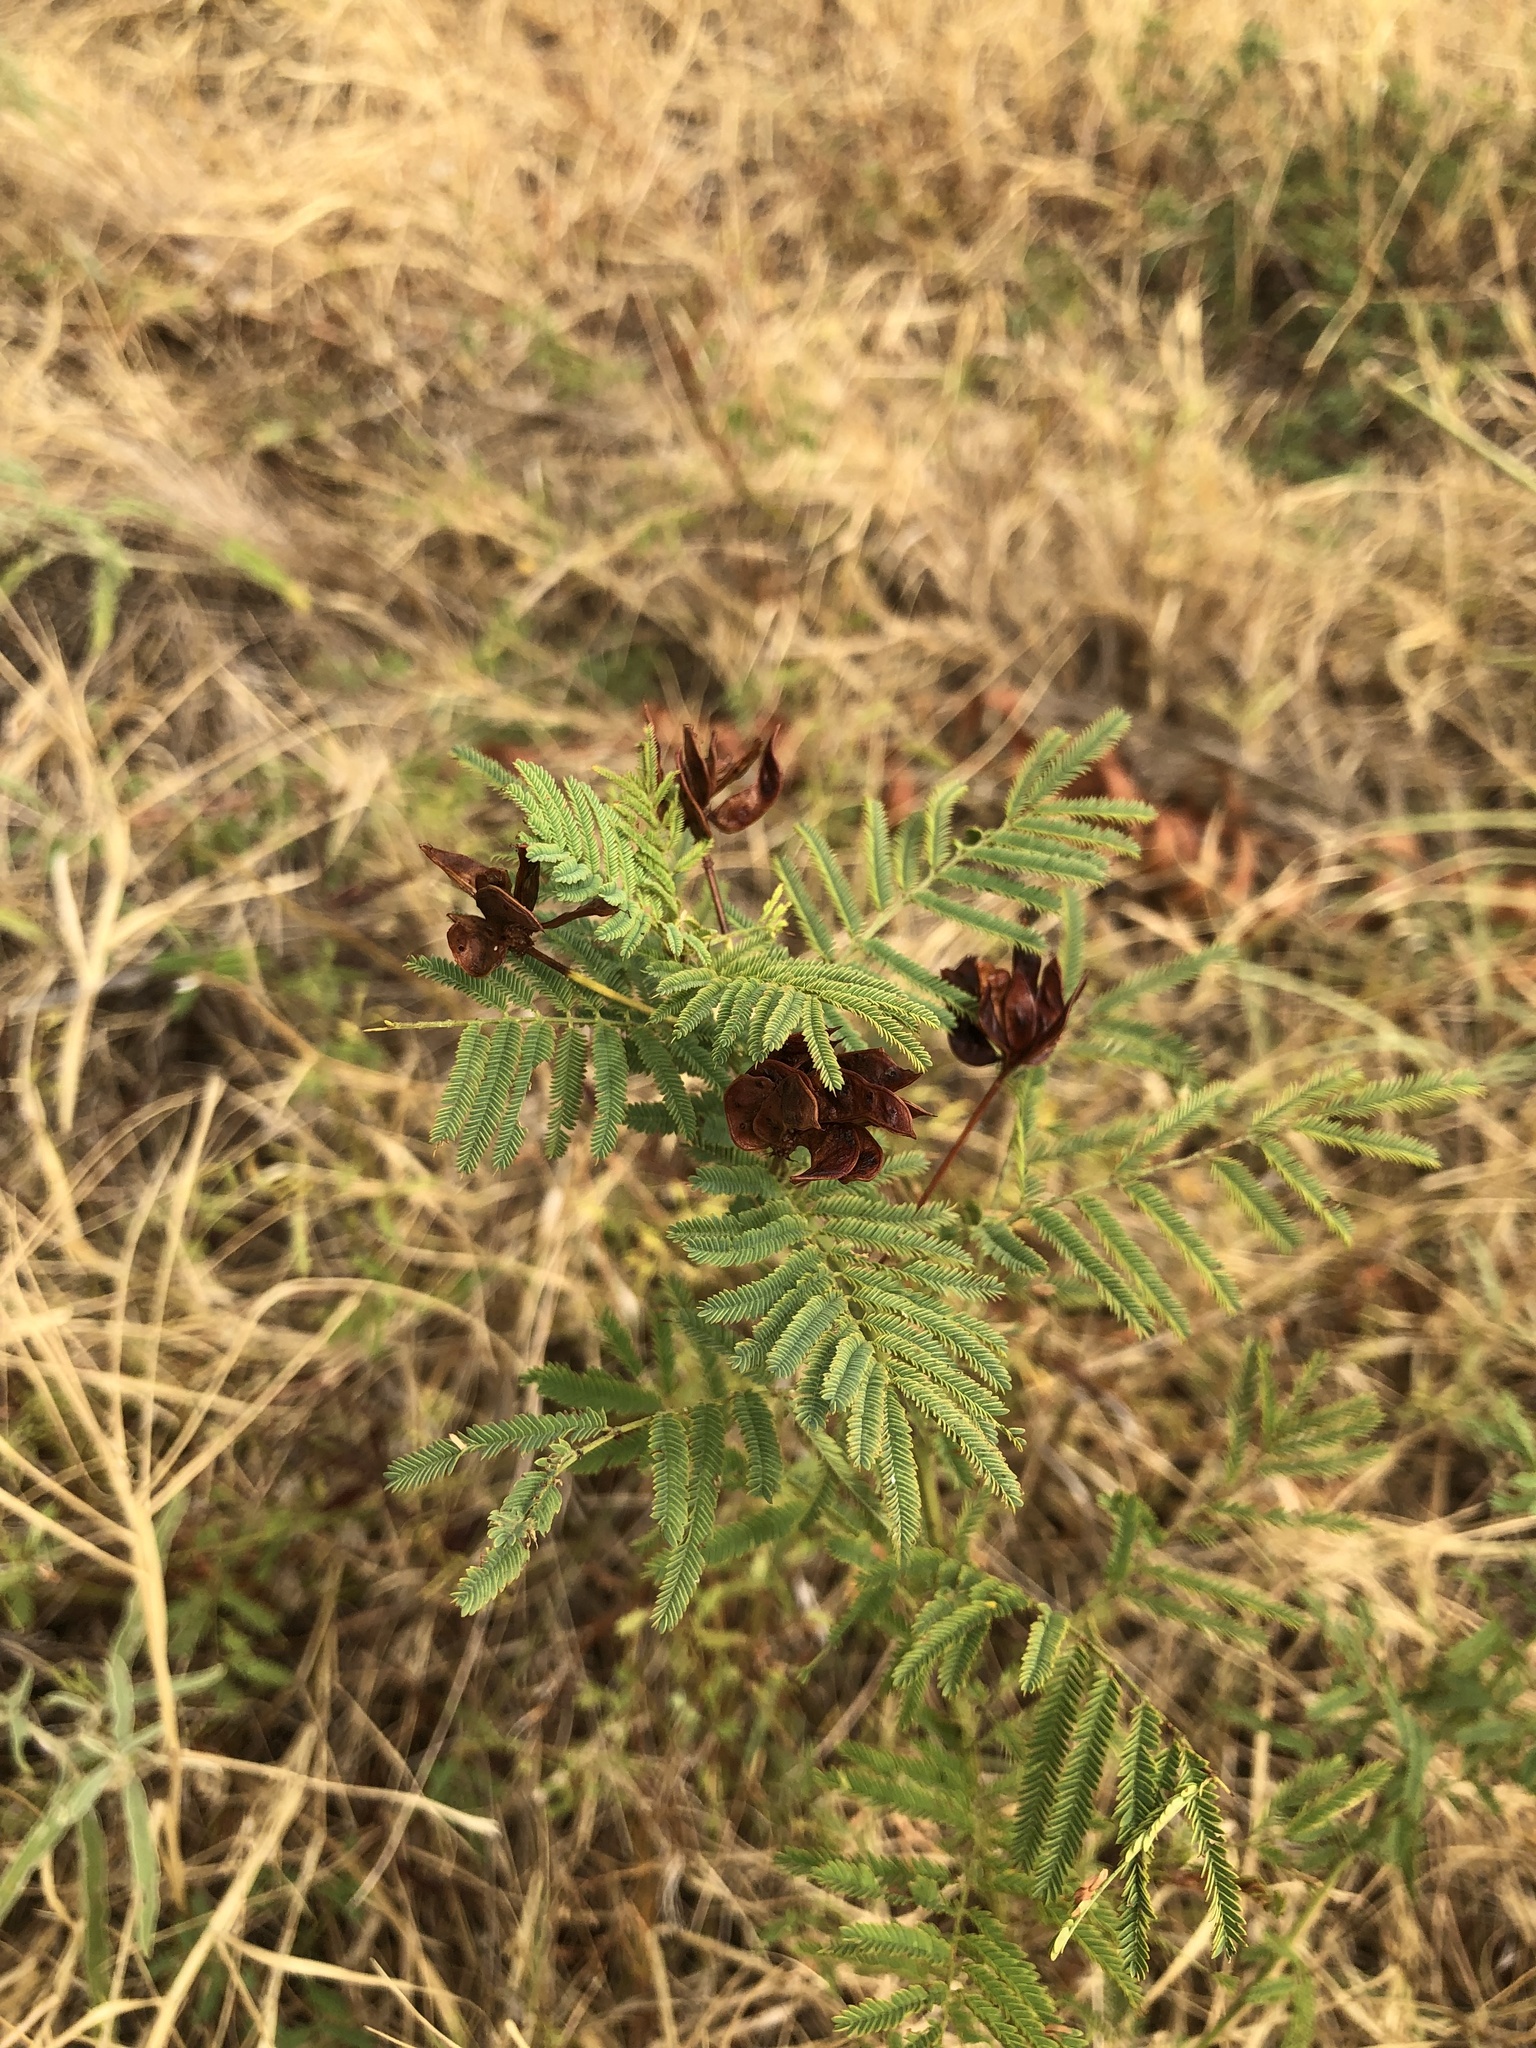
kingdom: Plantae
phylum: Tracheophyta
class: Magnoliopsida
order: Fabales
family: Fabaceae
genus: Desmanthus
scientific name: Desmanthus illinoensis
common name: Illinois bundle-flower
